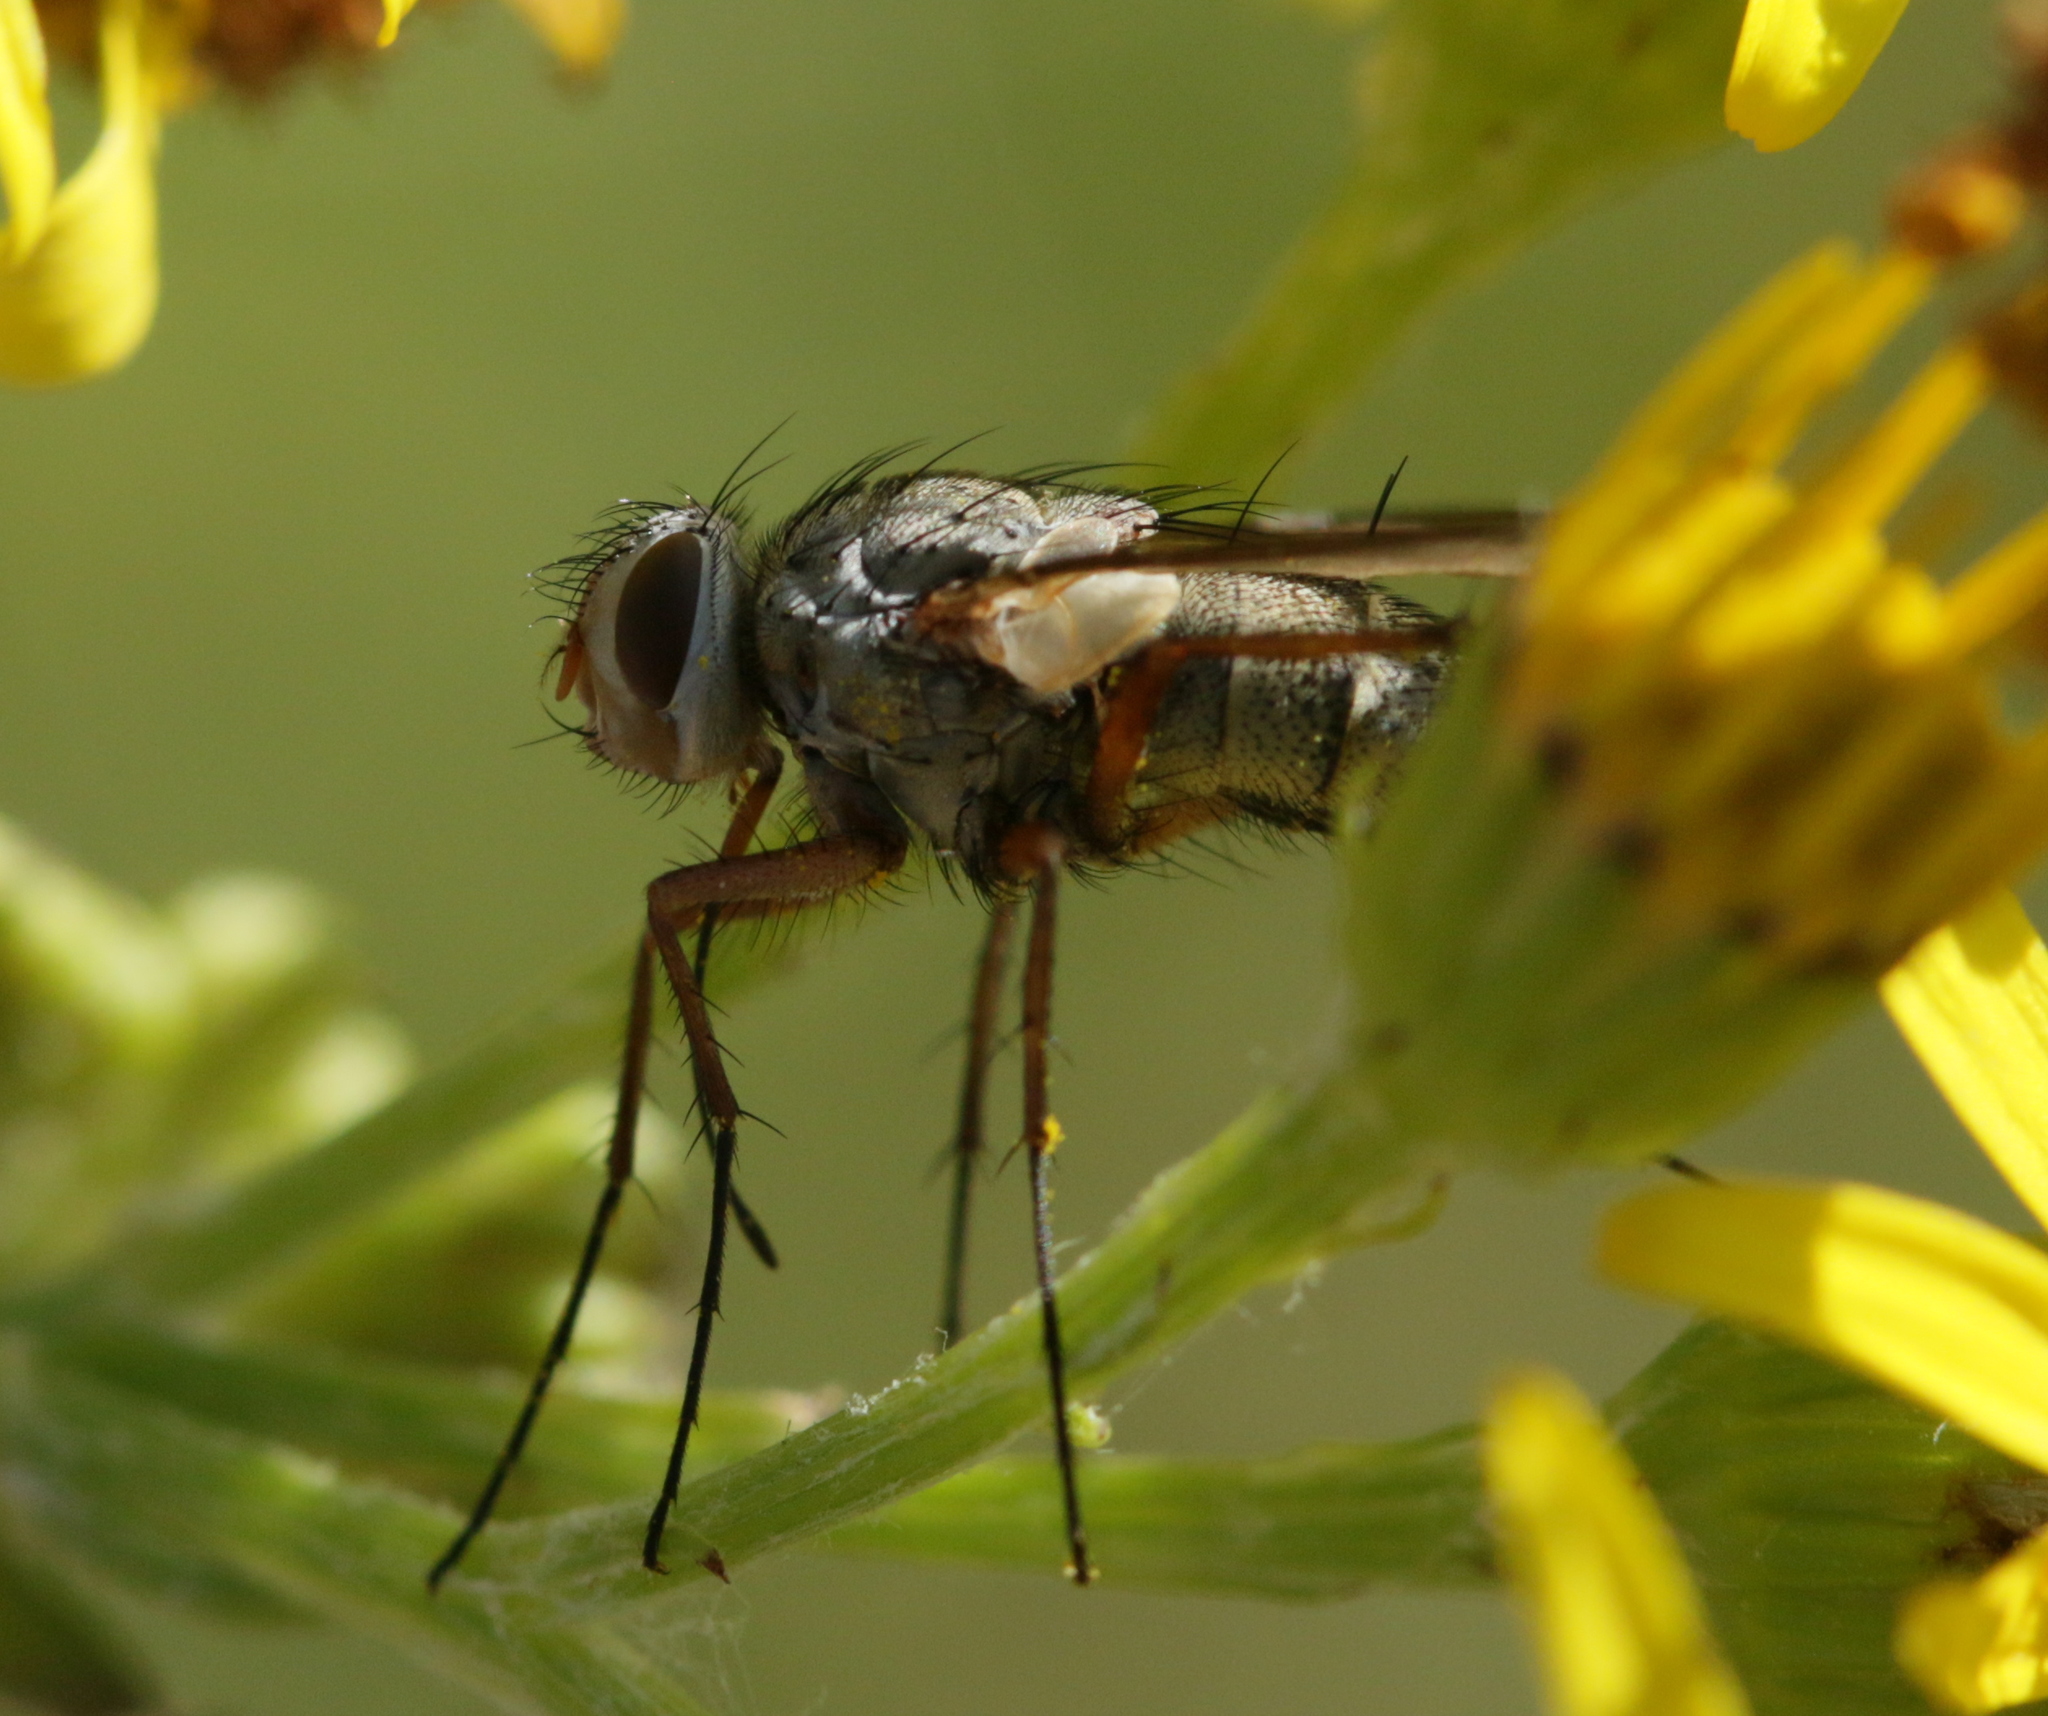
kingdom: Animalia
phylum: Arthropoda
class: Insecta
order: Diptera
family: Tachinidae
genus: Prosena
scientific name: Prosena siberita
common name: Parasitic fly
